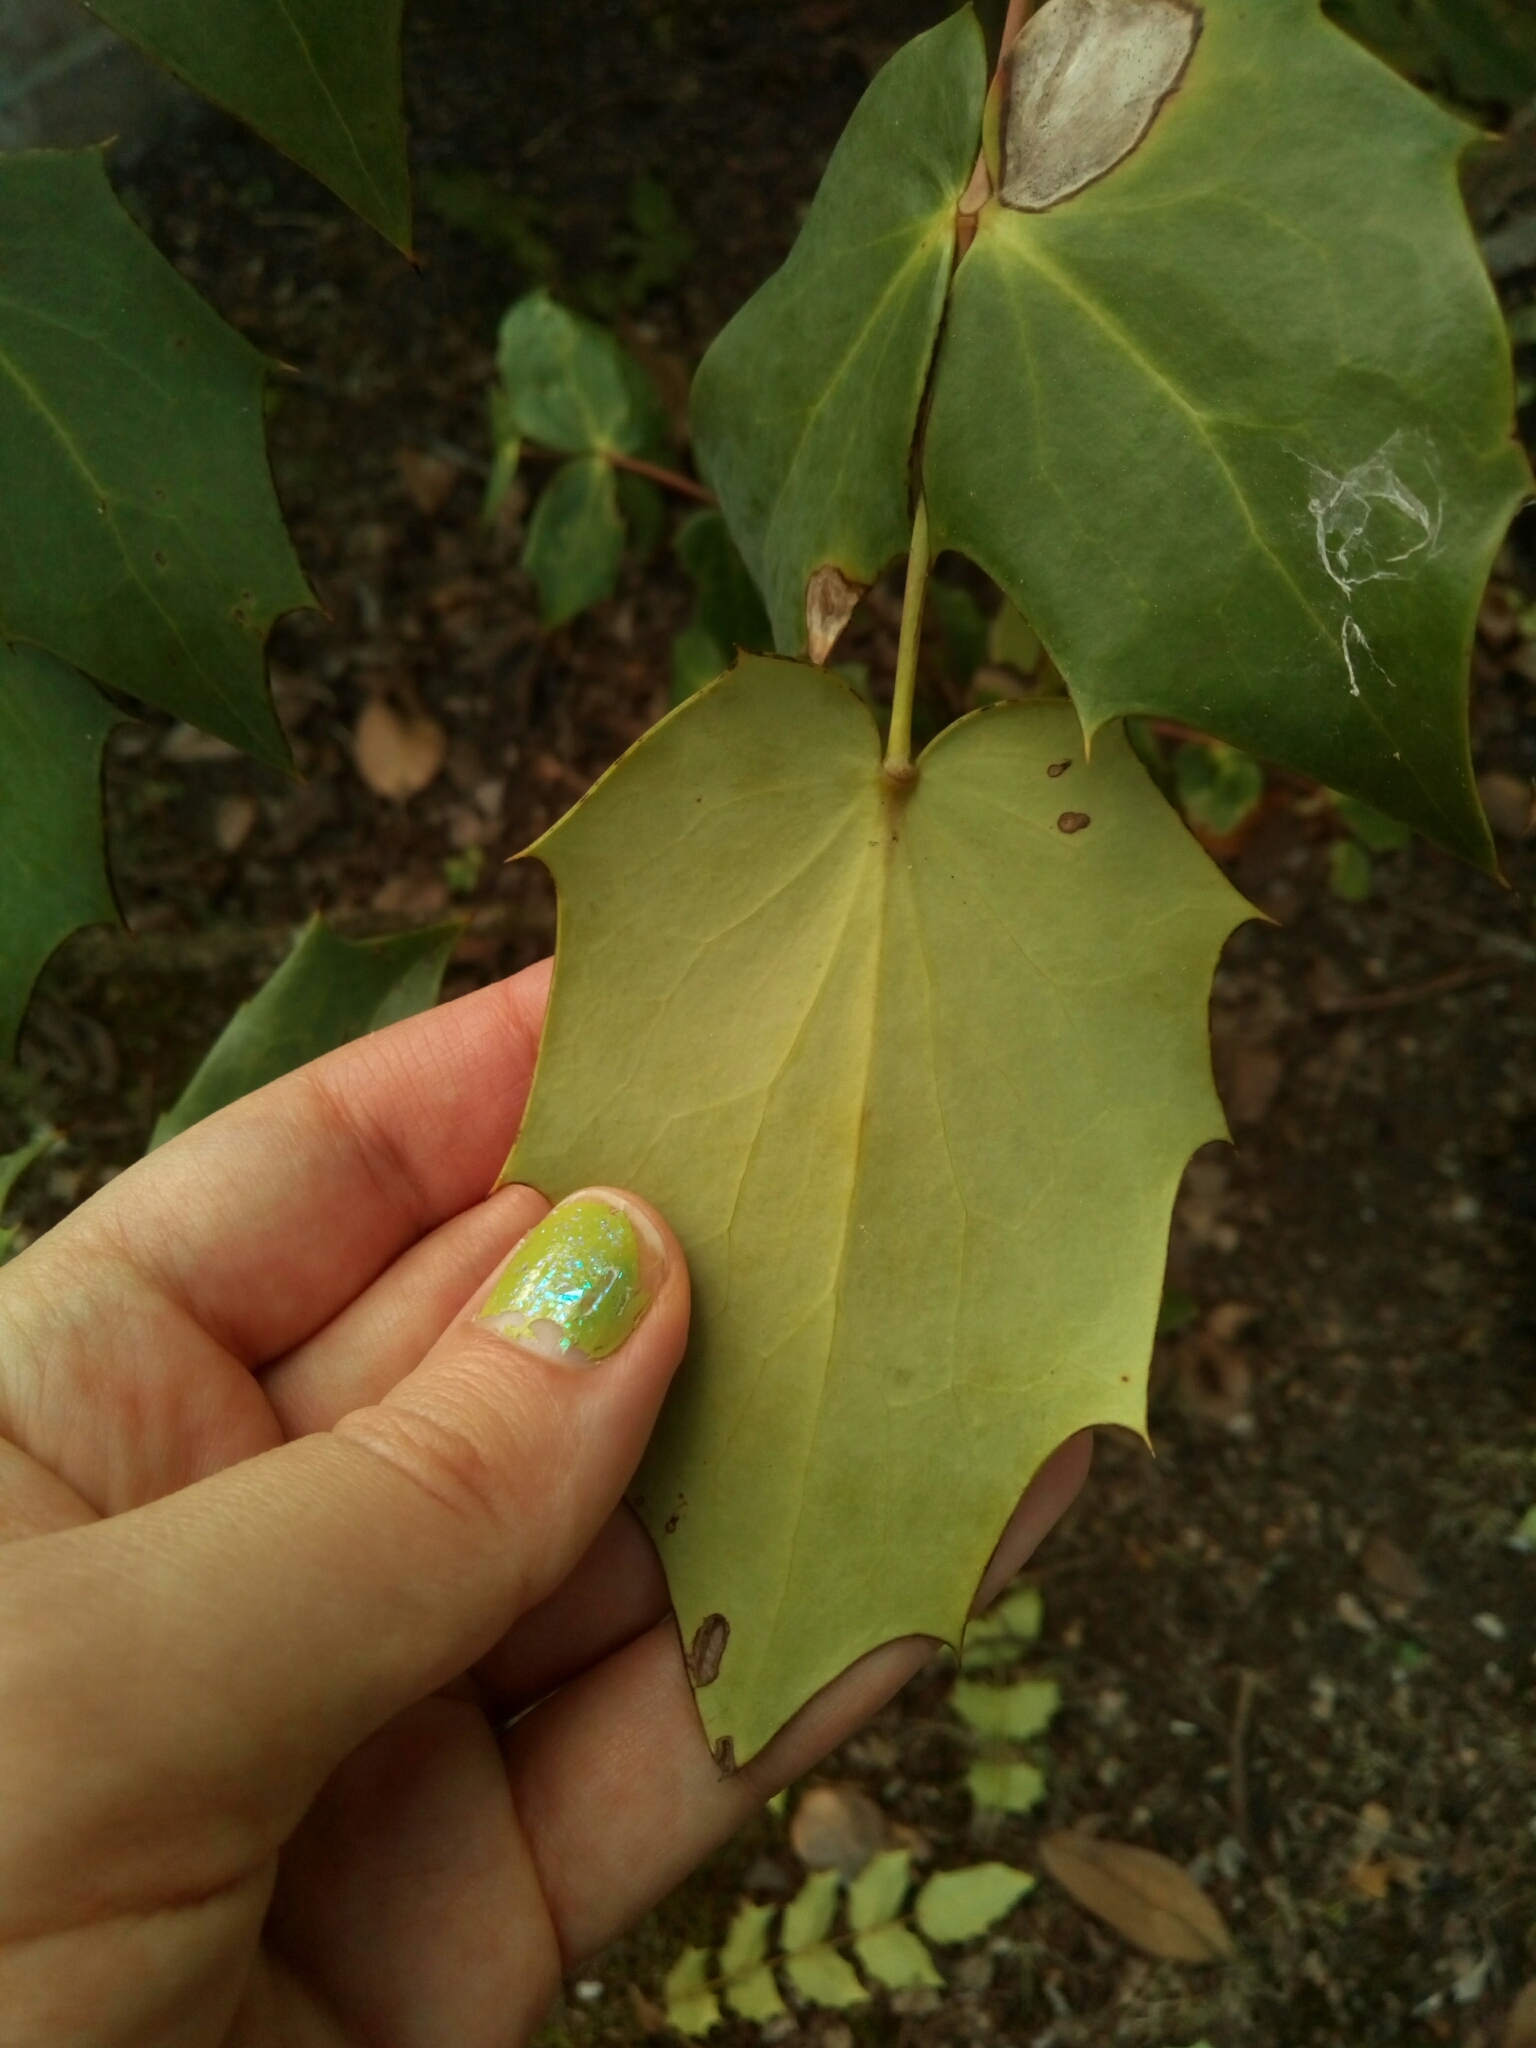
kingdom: Plantae
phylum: Tracheophyta
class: Magnoliopsida
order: Ranunculales
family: Berberidaceae
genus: Mahonia
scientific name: Mahonia bealei
